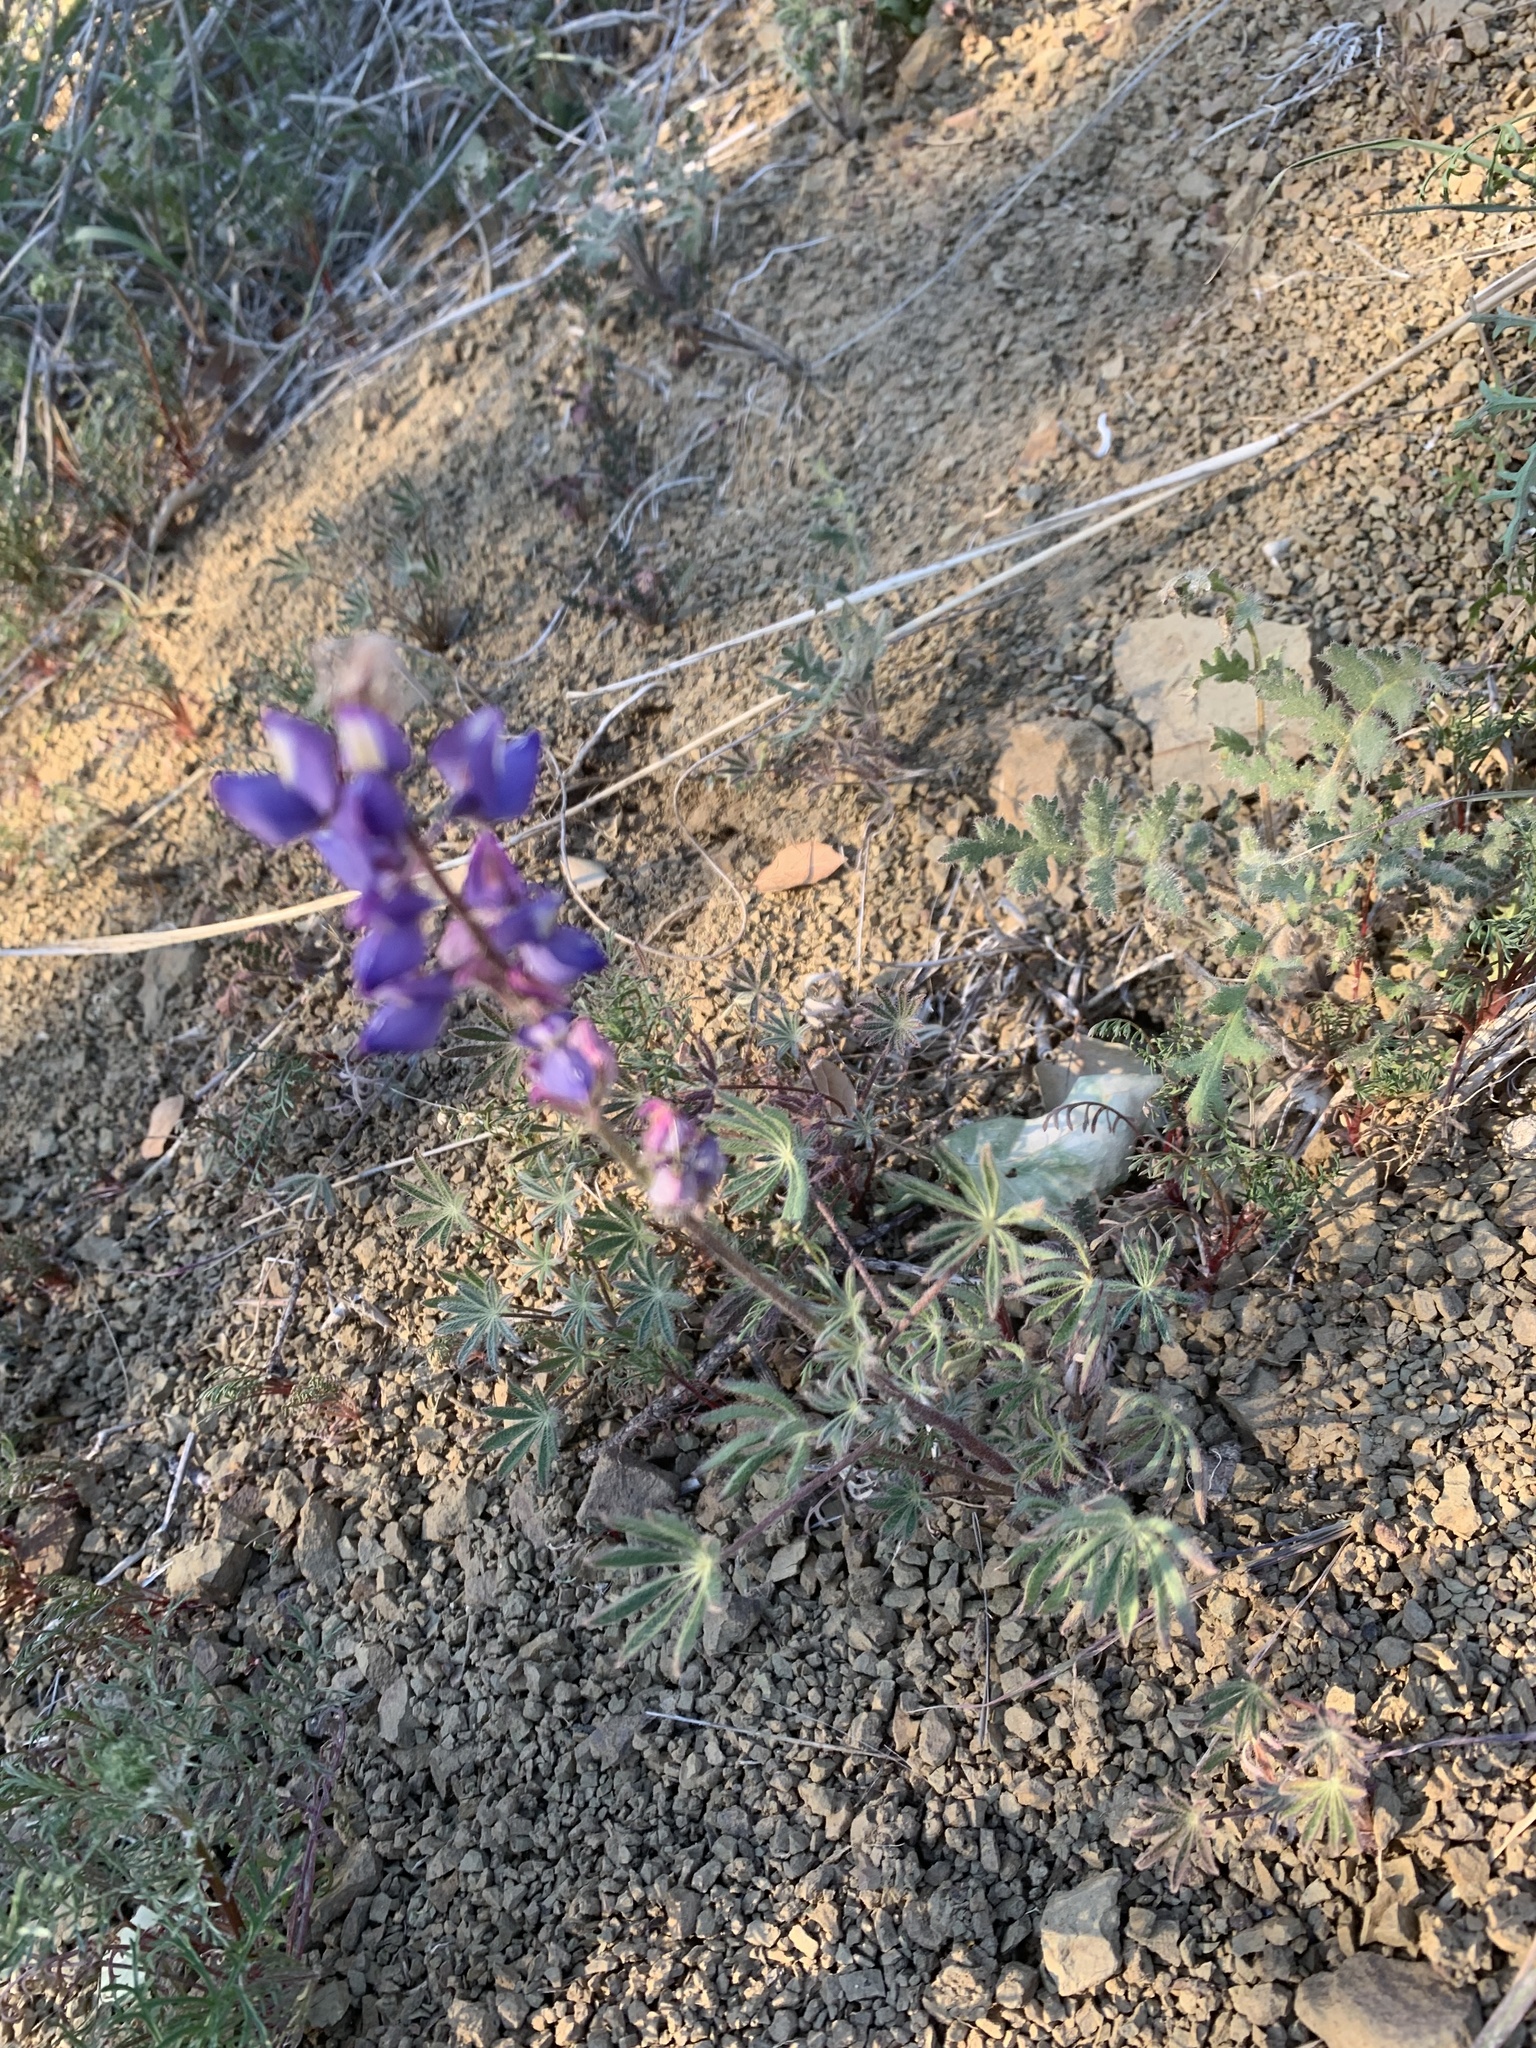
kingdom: Plantae
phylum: Tracheophyta
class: Magnoliopsida
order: Fabales
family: Fabaceae
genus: Lupinus
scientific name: Lupinus sparsiflorus
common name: Coulter's lupine
